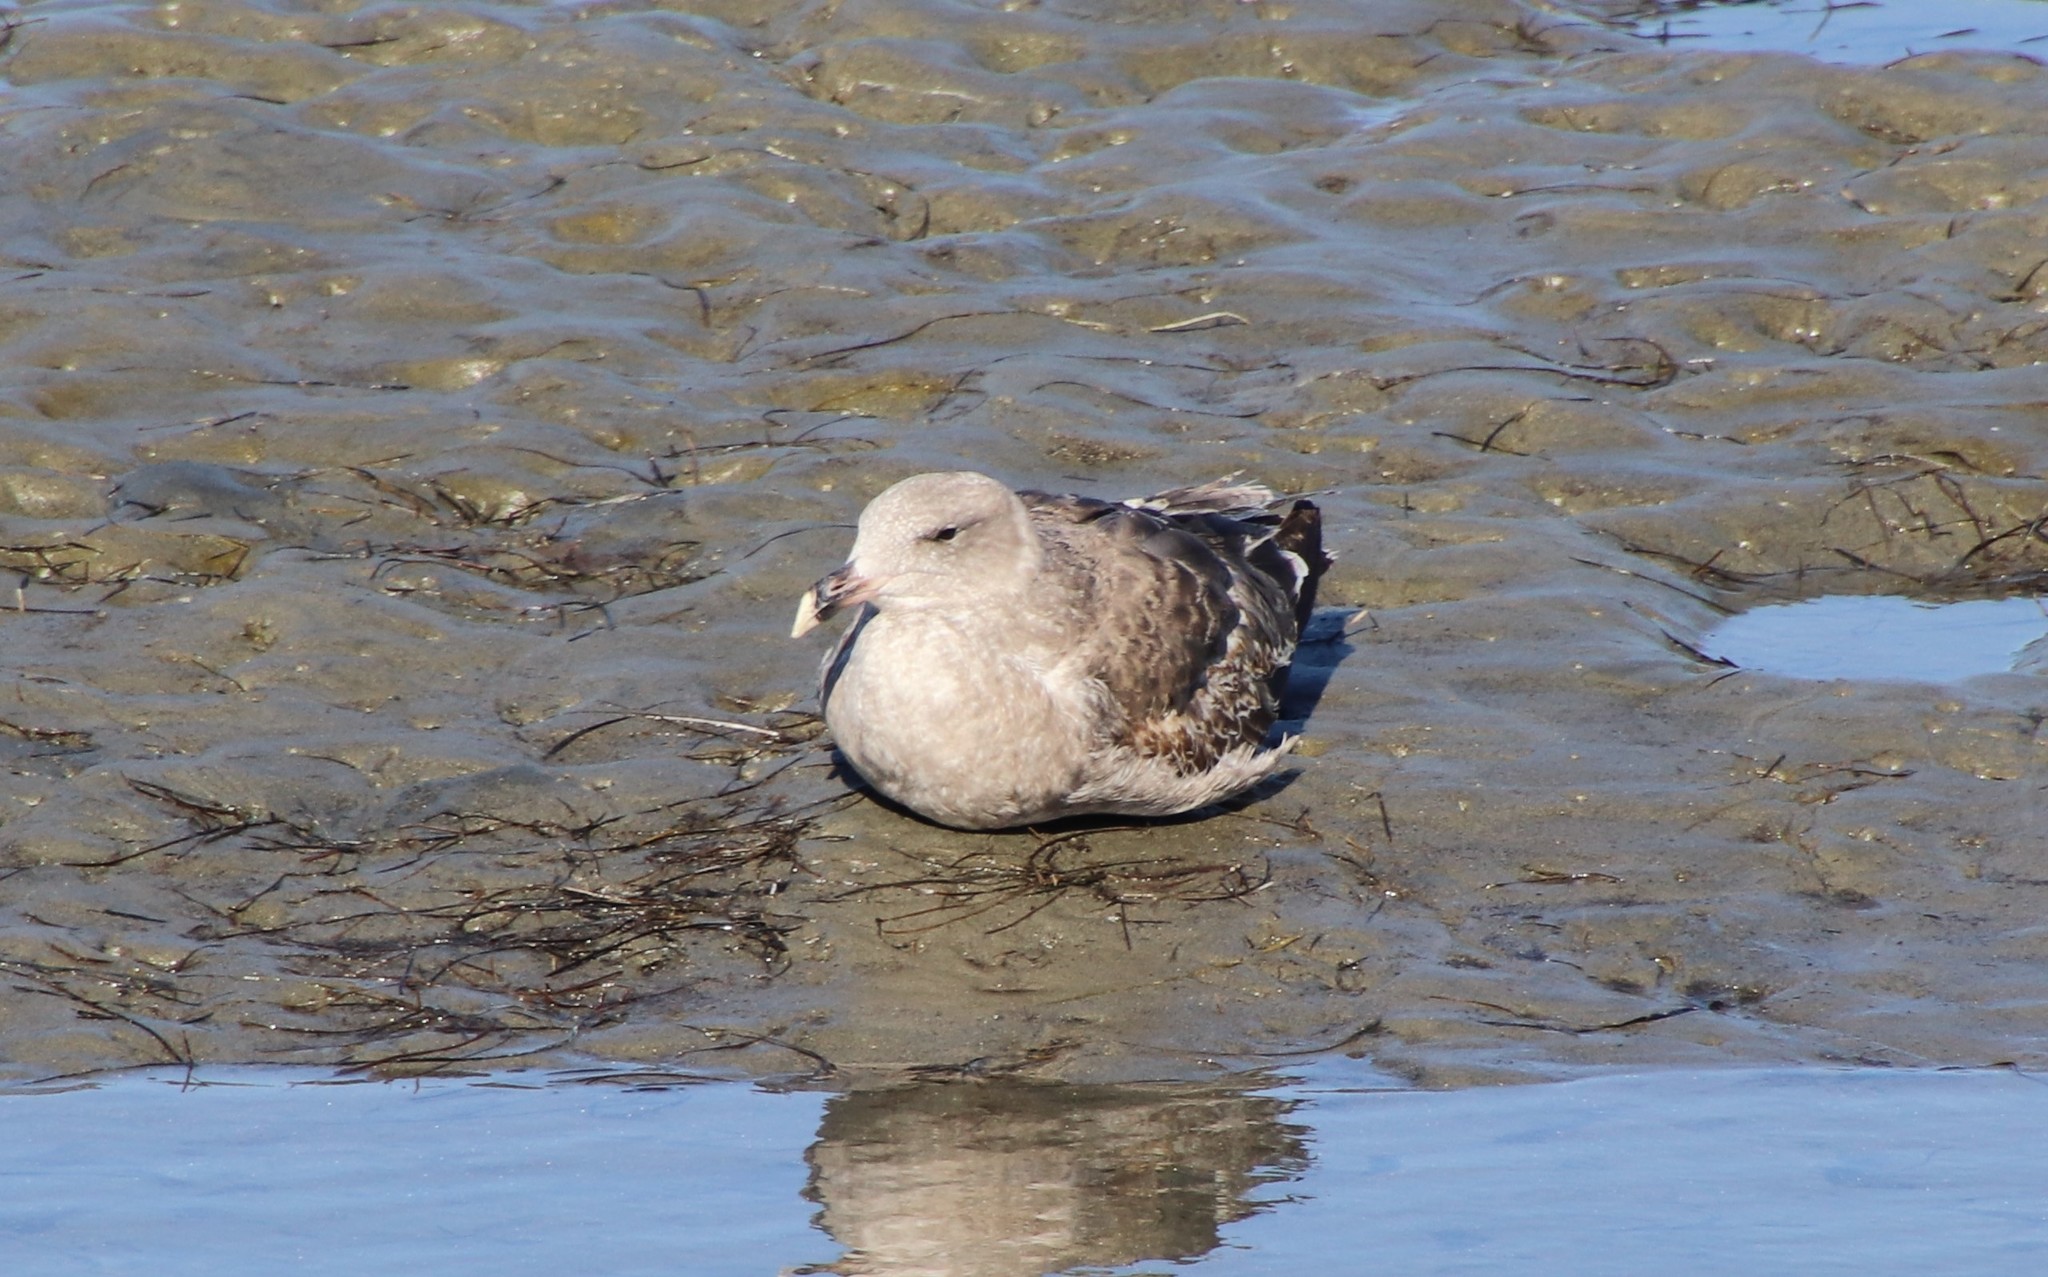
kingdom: Animalia
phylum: Chordata
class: Aves
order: Charadriiformes
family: Laridae
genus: Larus
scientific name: Larus occidentalis
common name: Western gull
